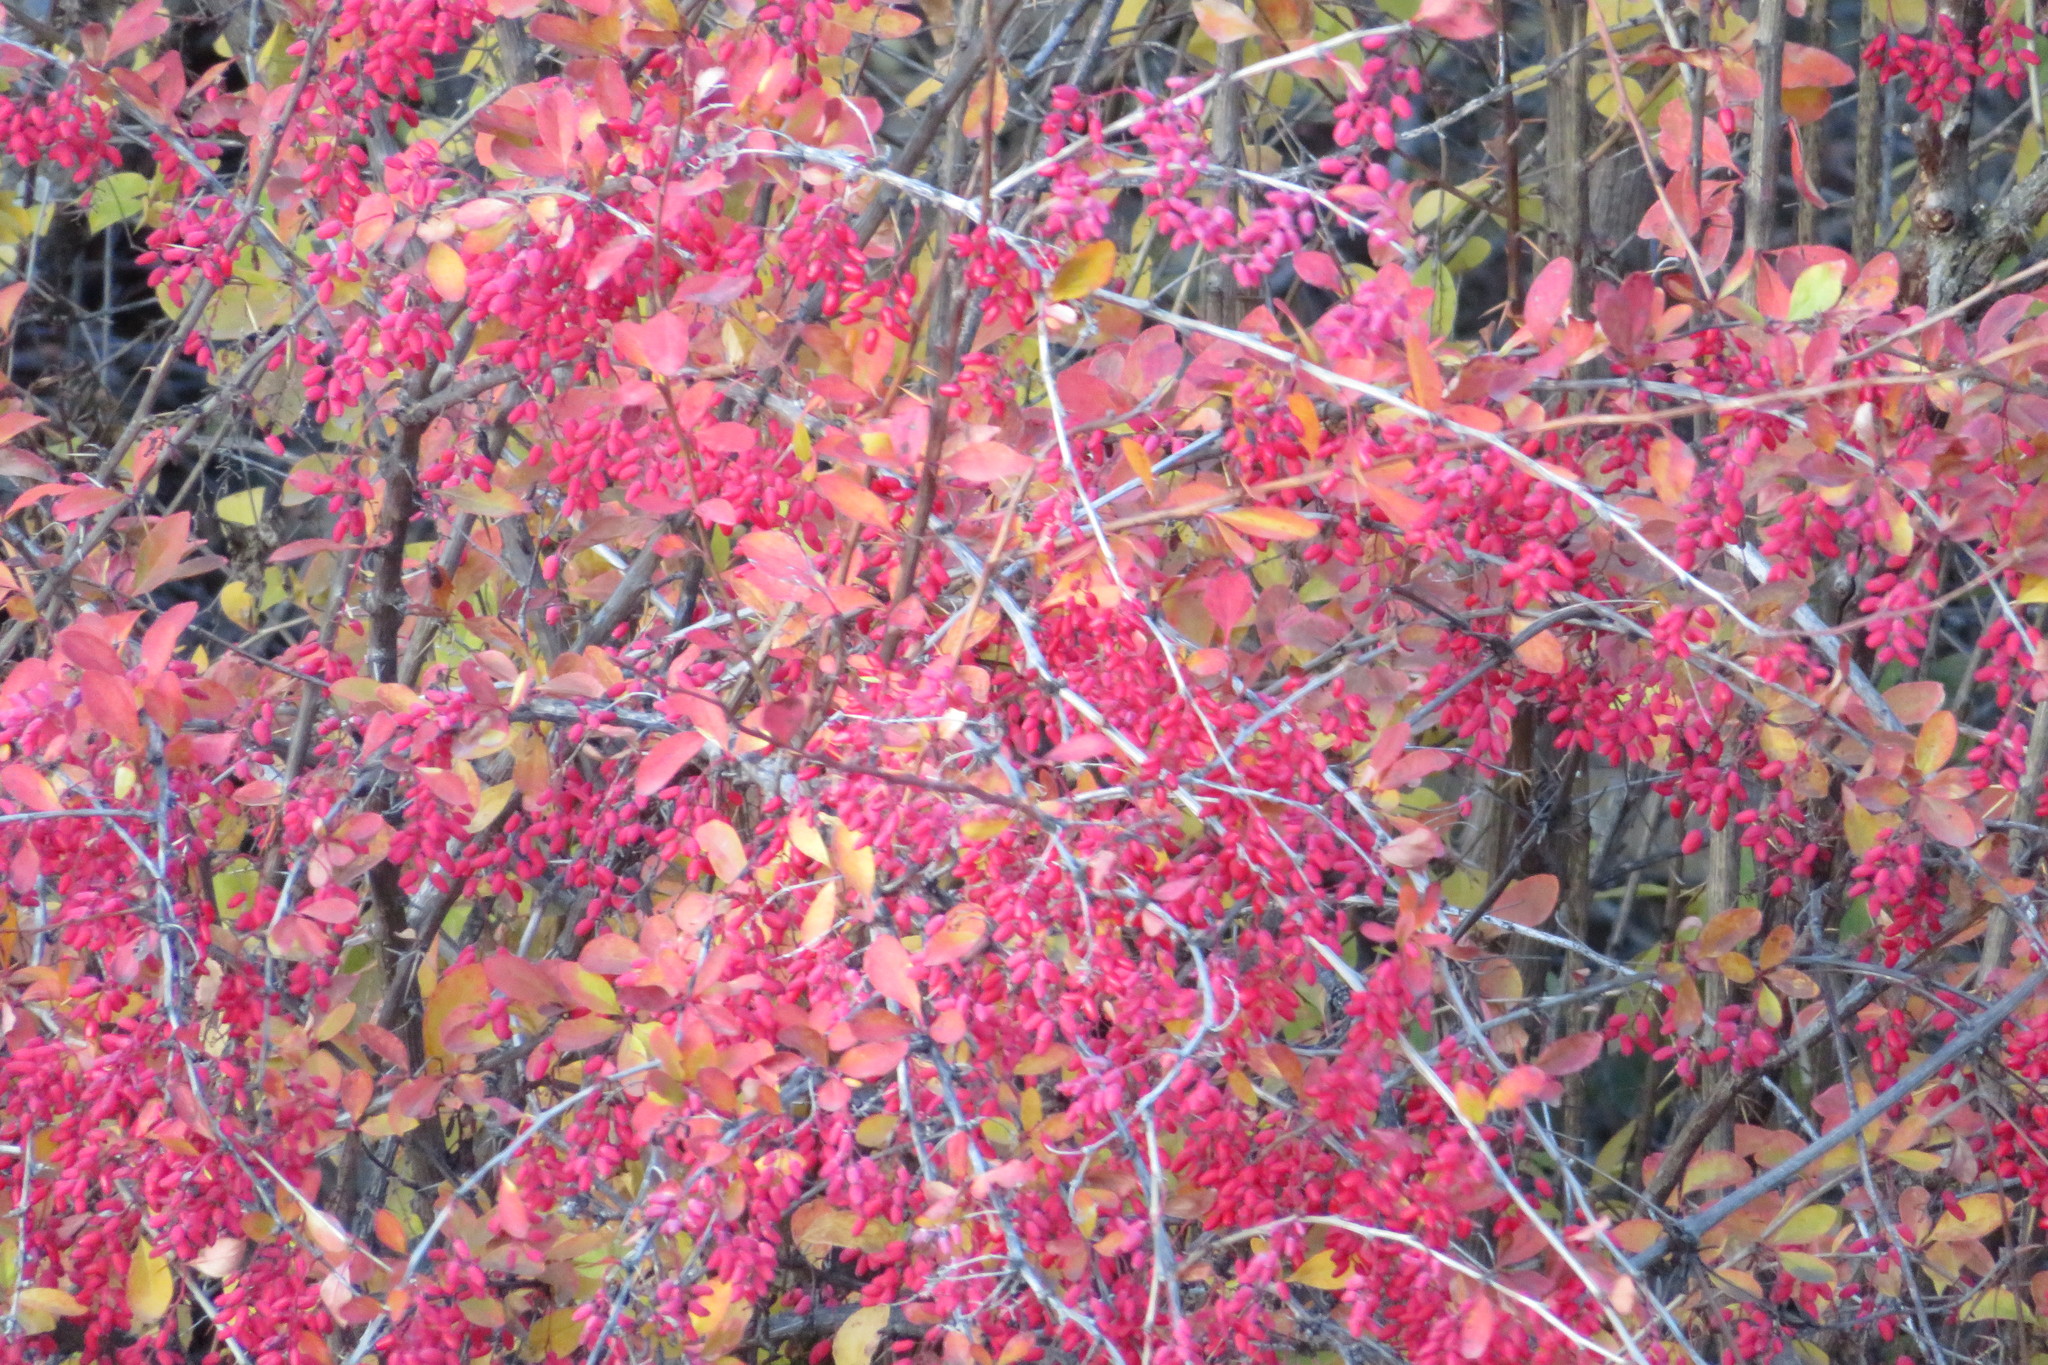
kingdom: Plantae
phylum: Tracheophyta
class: Magnoliopsida
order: Ranunculales
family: Berberidaceae
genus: Berberis
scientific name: Berberis vulgaris
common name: Barberry
